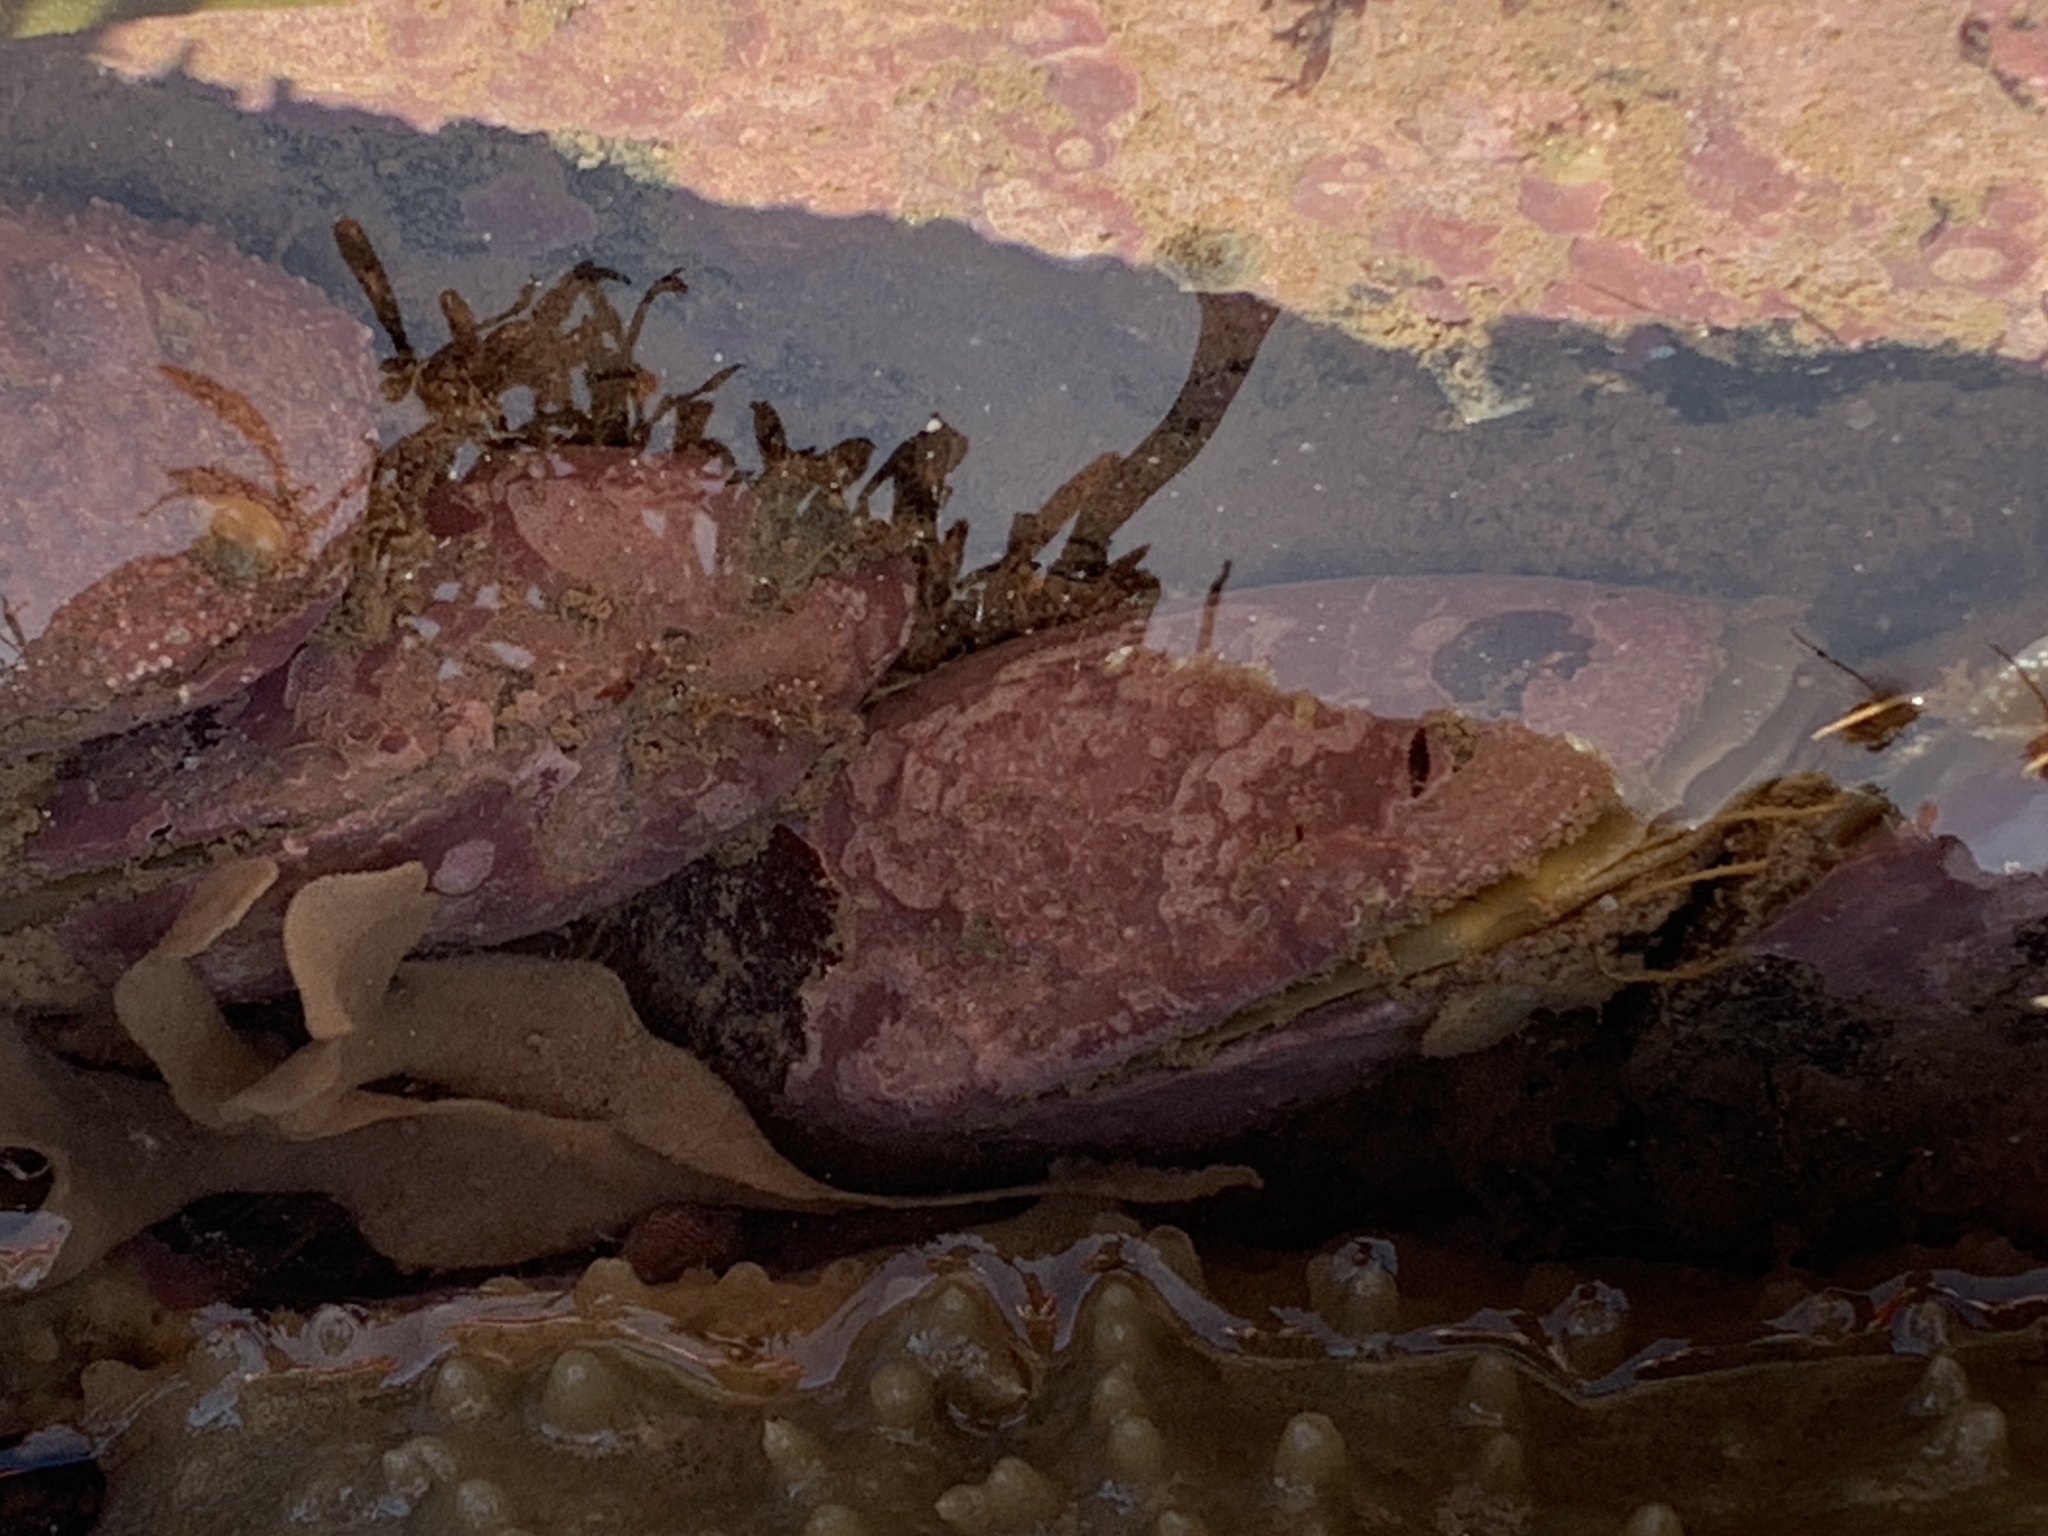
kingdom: Animalia
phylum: Mollusca
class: Bivalvia
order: Mytilida
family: Mytilidae
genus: Modiolus
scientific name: Modiolus modiolus
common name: Horse-mussel
